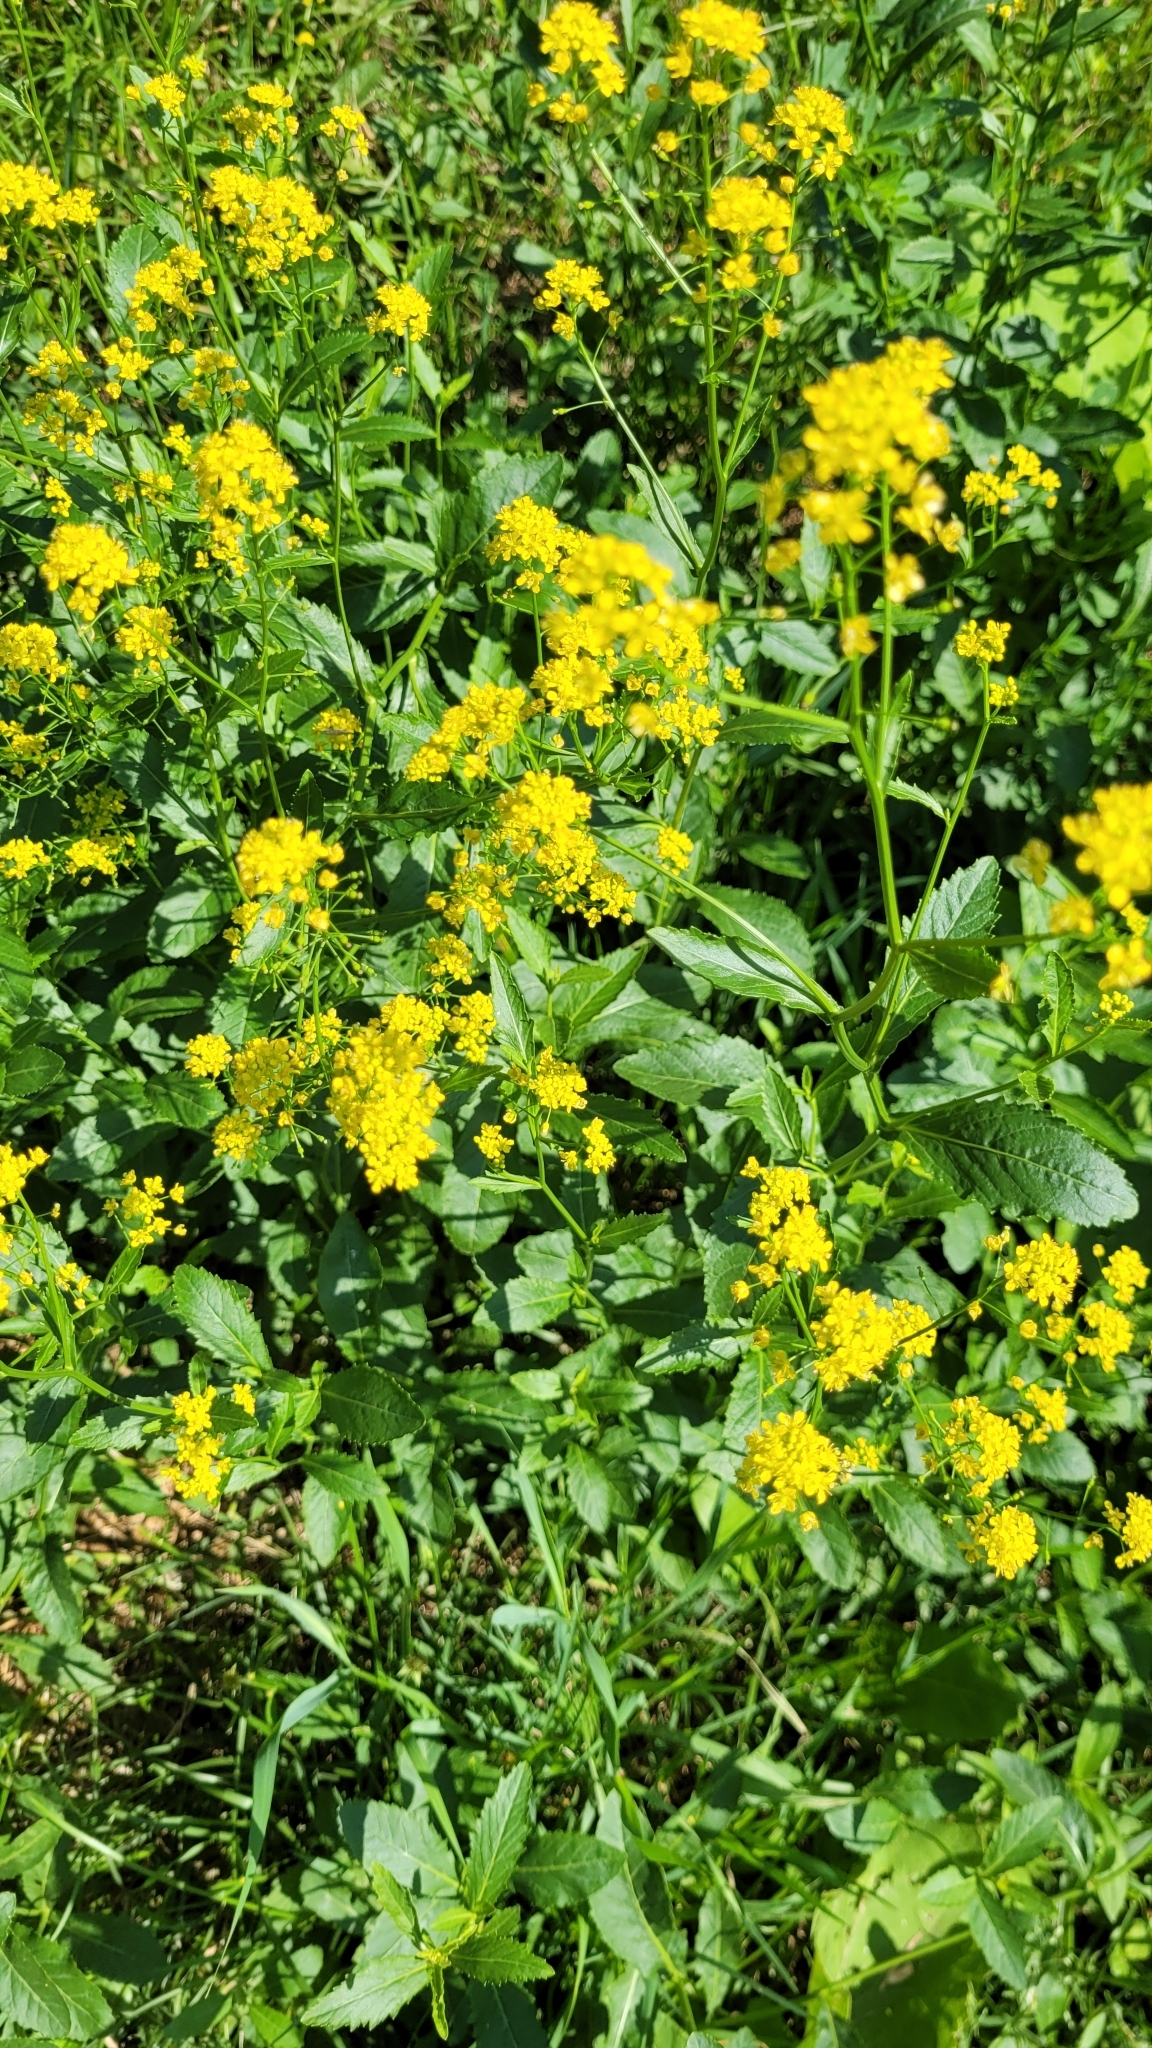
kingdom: Plantae
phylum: Tracheophyta
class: Magnoliopsida
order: Brassicales
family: Brassicaceae
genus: Rorippa
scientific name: Rorippa austriaca
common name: Austrian yellow-cress
